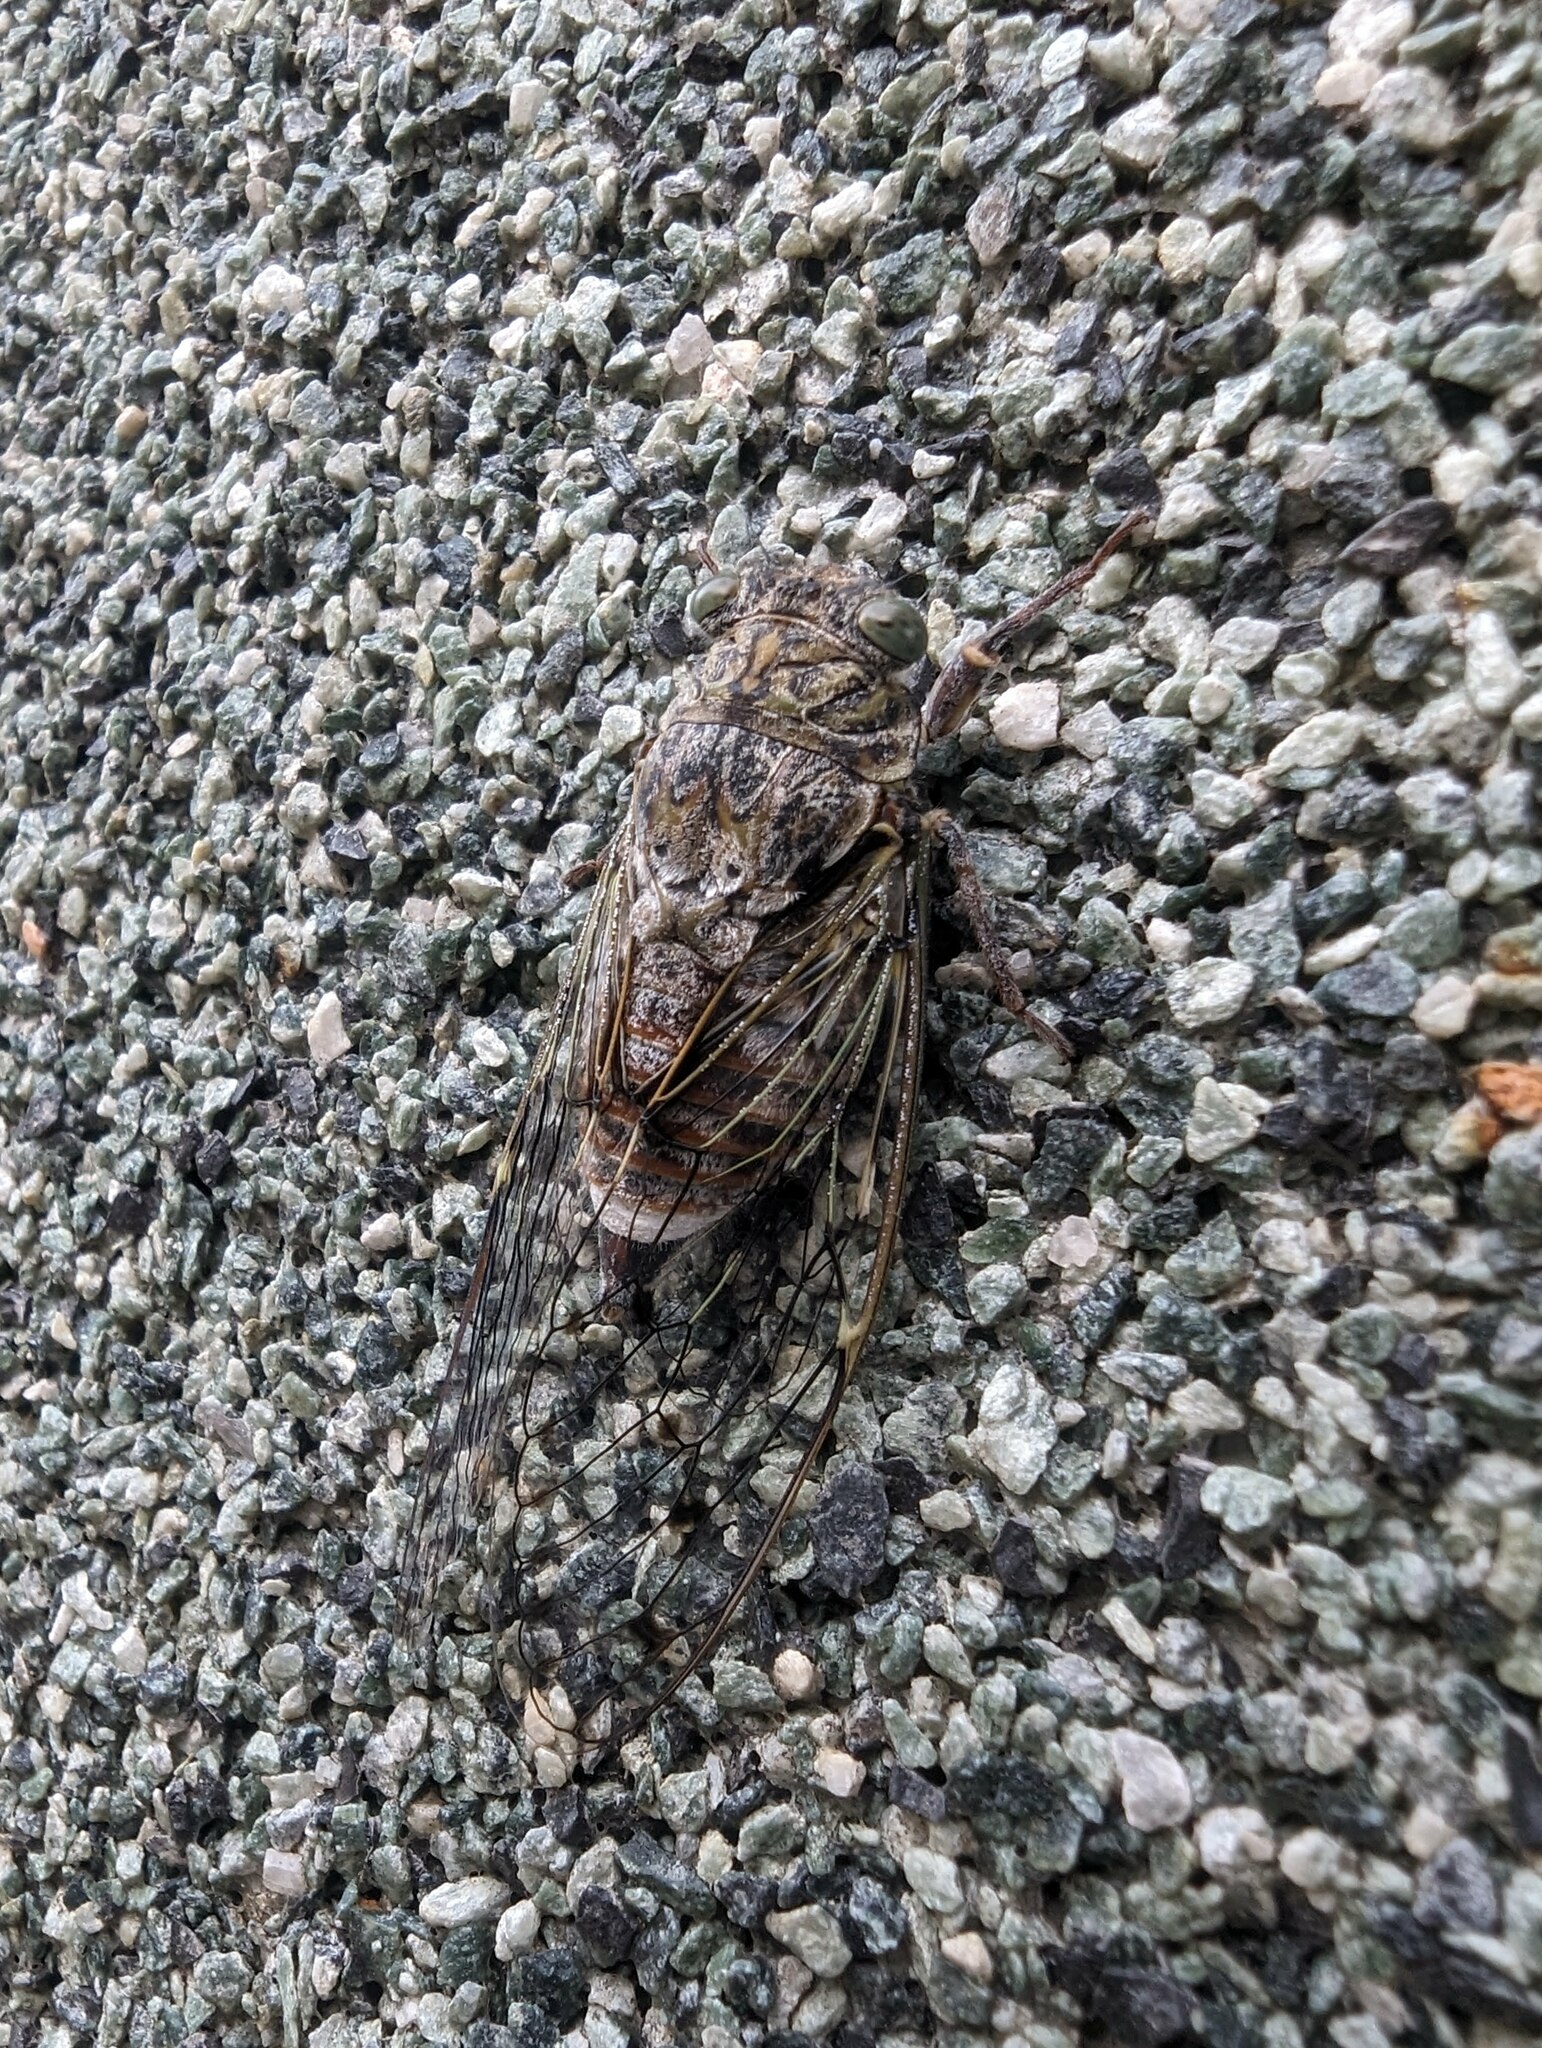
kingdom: Animalia
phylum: Arthropoda
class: Insecta
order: Hemiptera
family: Cicadidae
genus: Cicada
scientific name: Cicada orni
